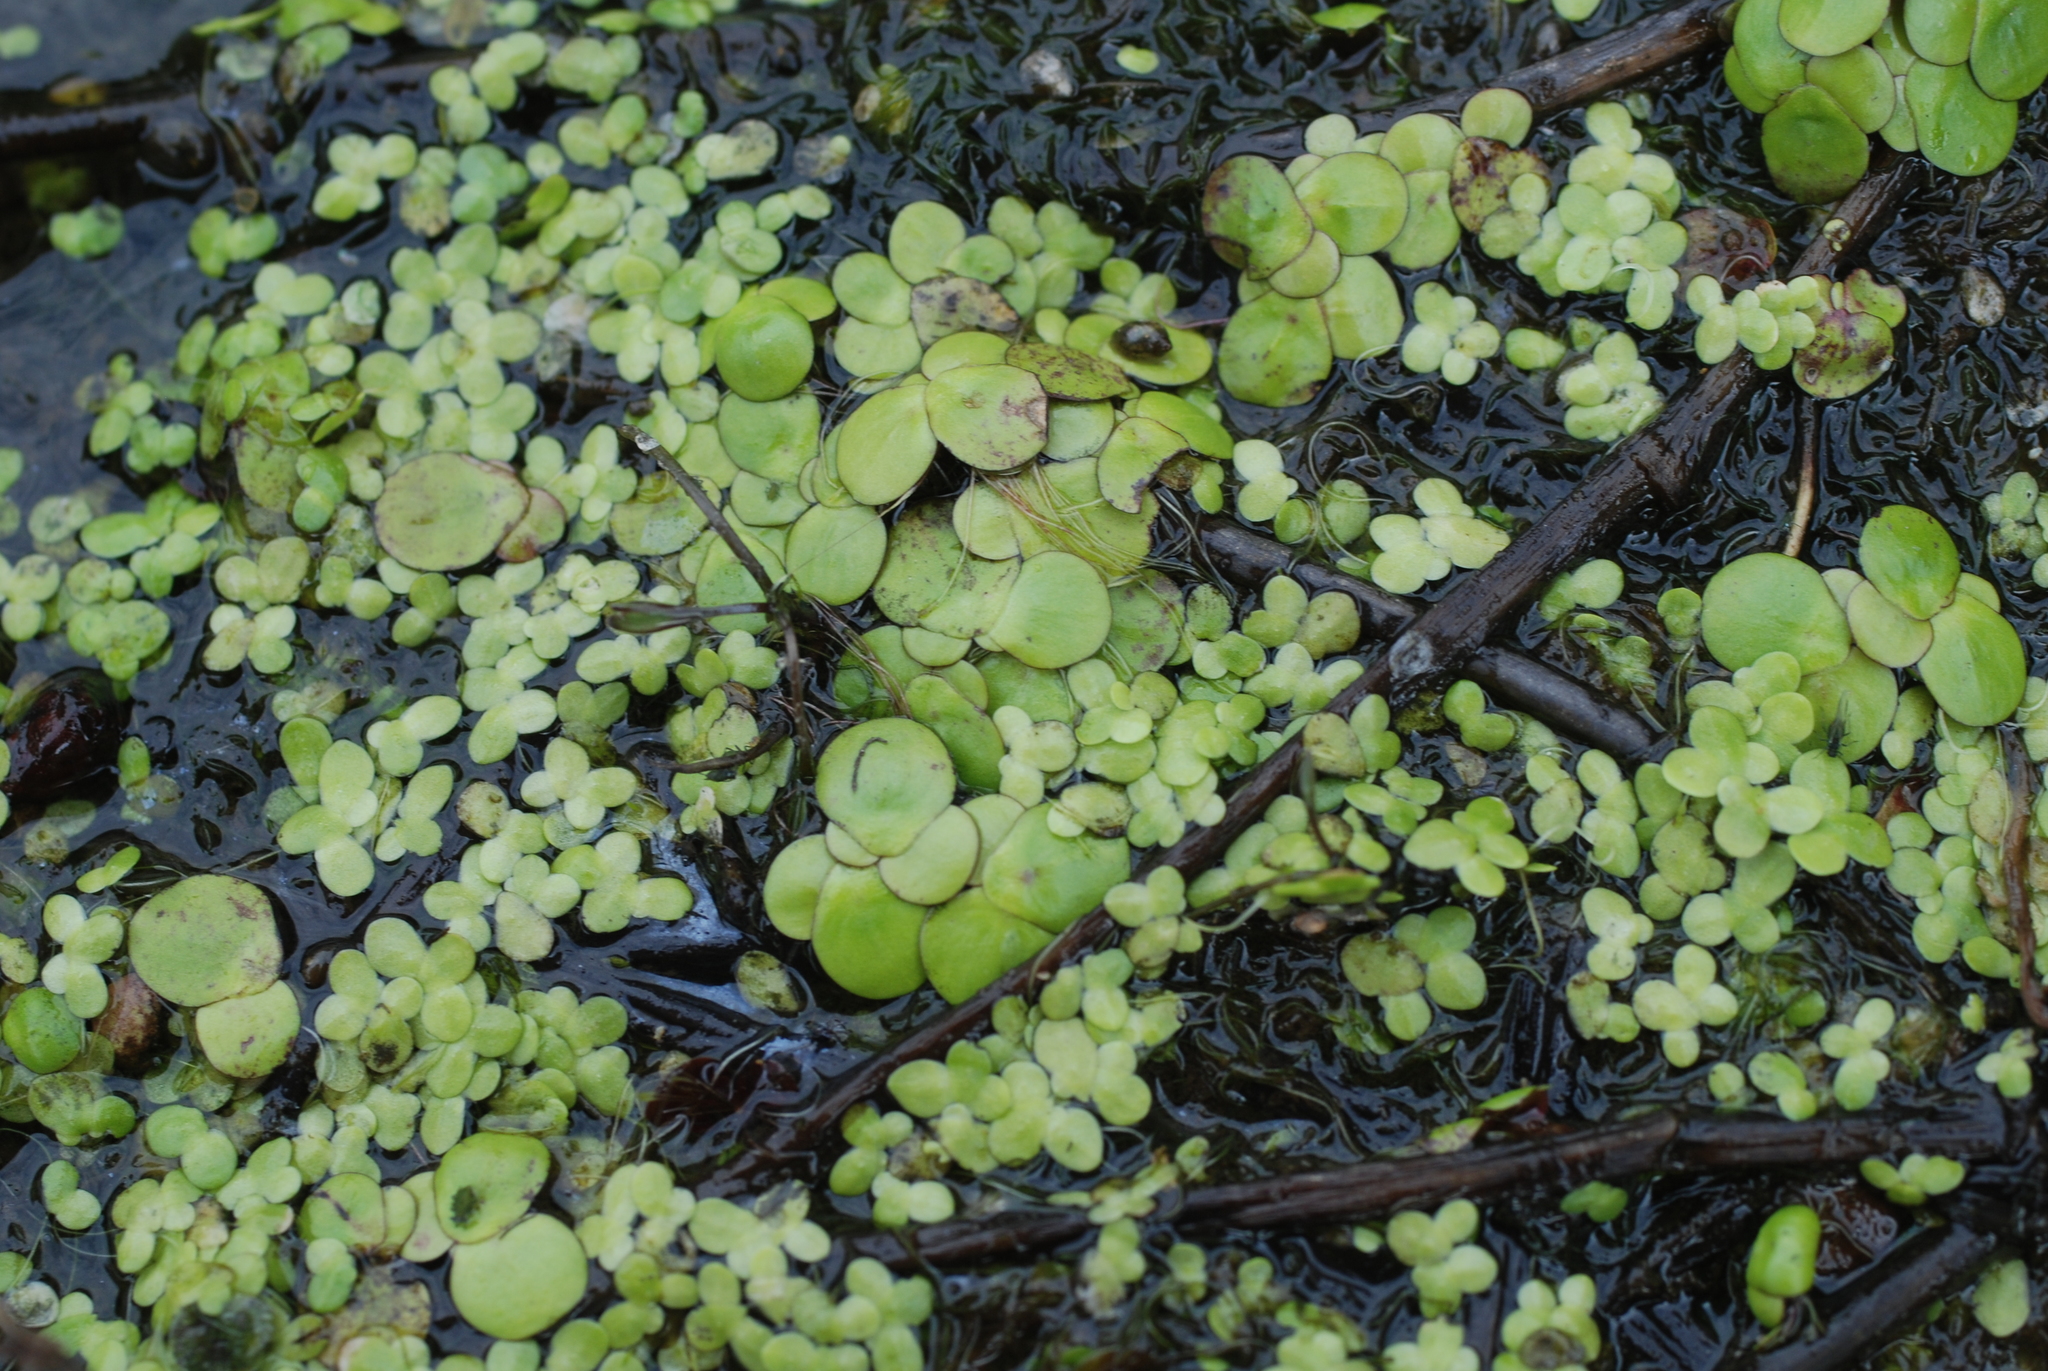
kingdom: Plantae
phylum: Tracheophyta
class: Liliopsida
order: Alismatales
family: Araceae
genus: Spirodela
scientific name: Spirodela polyrhiza
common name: Great duckweed
